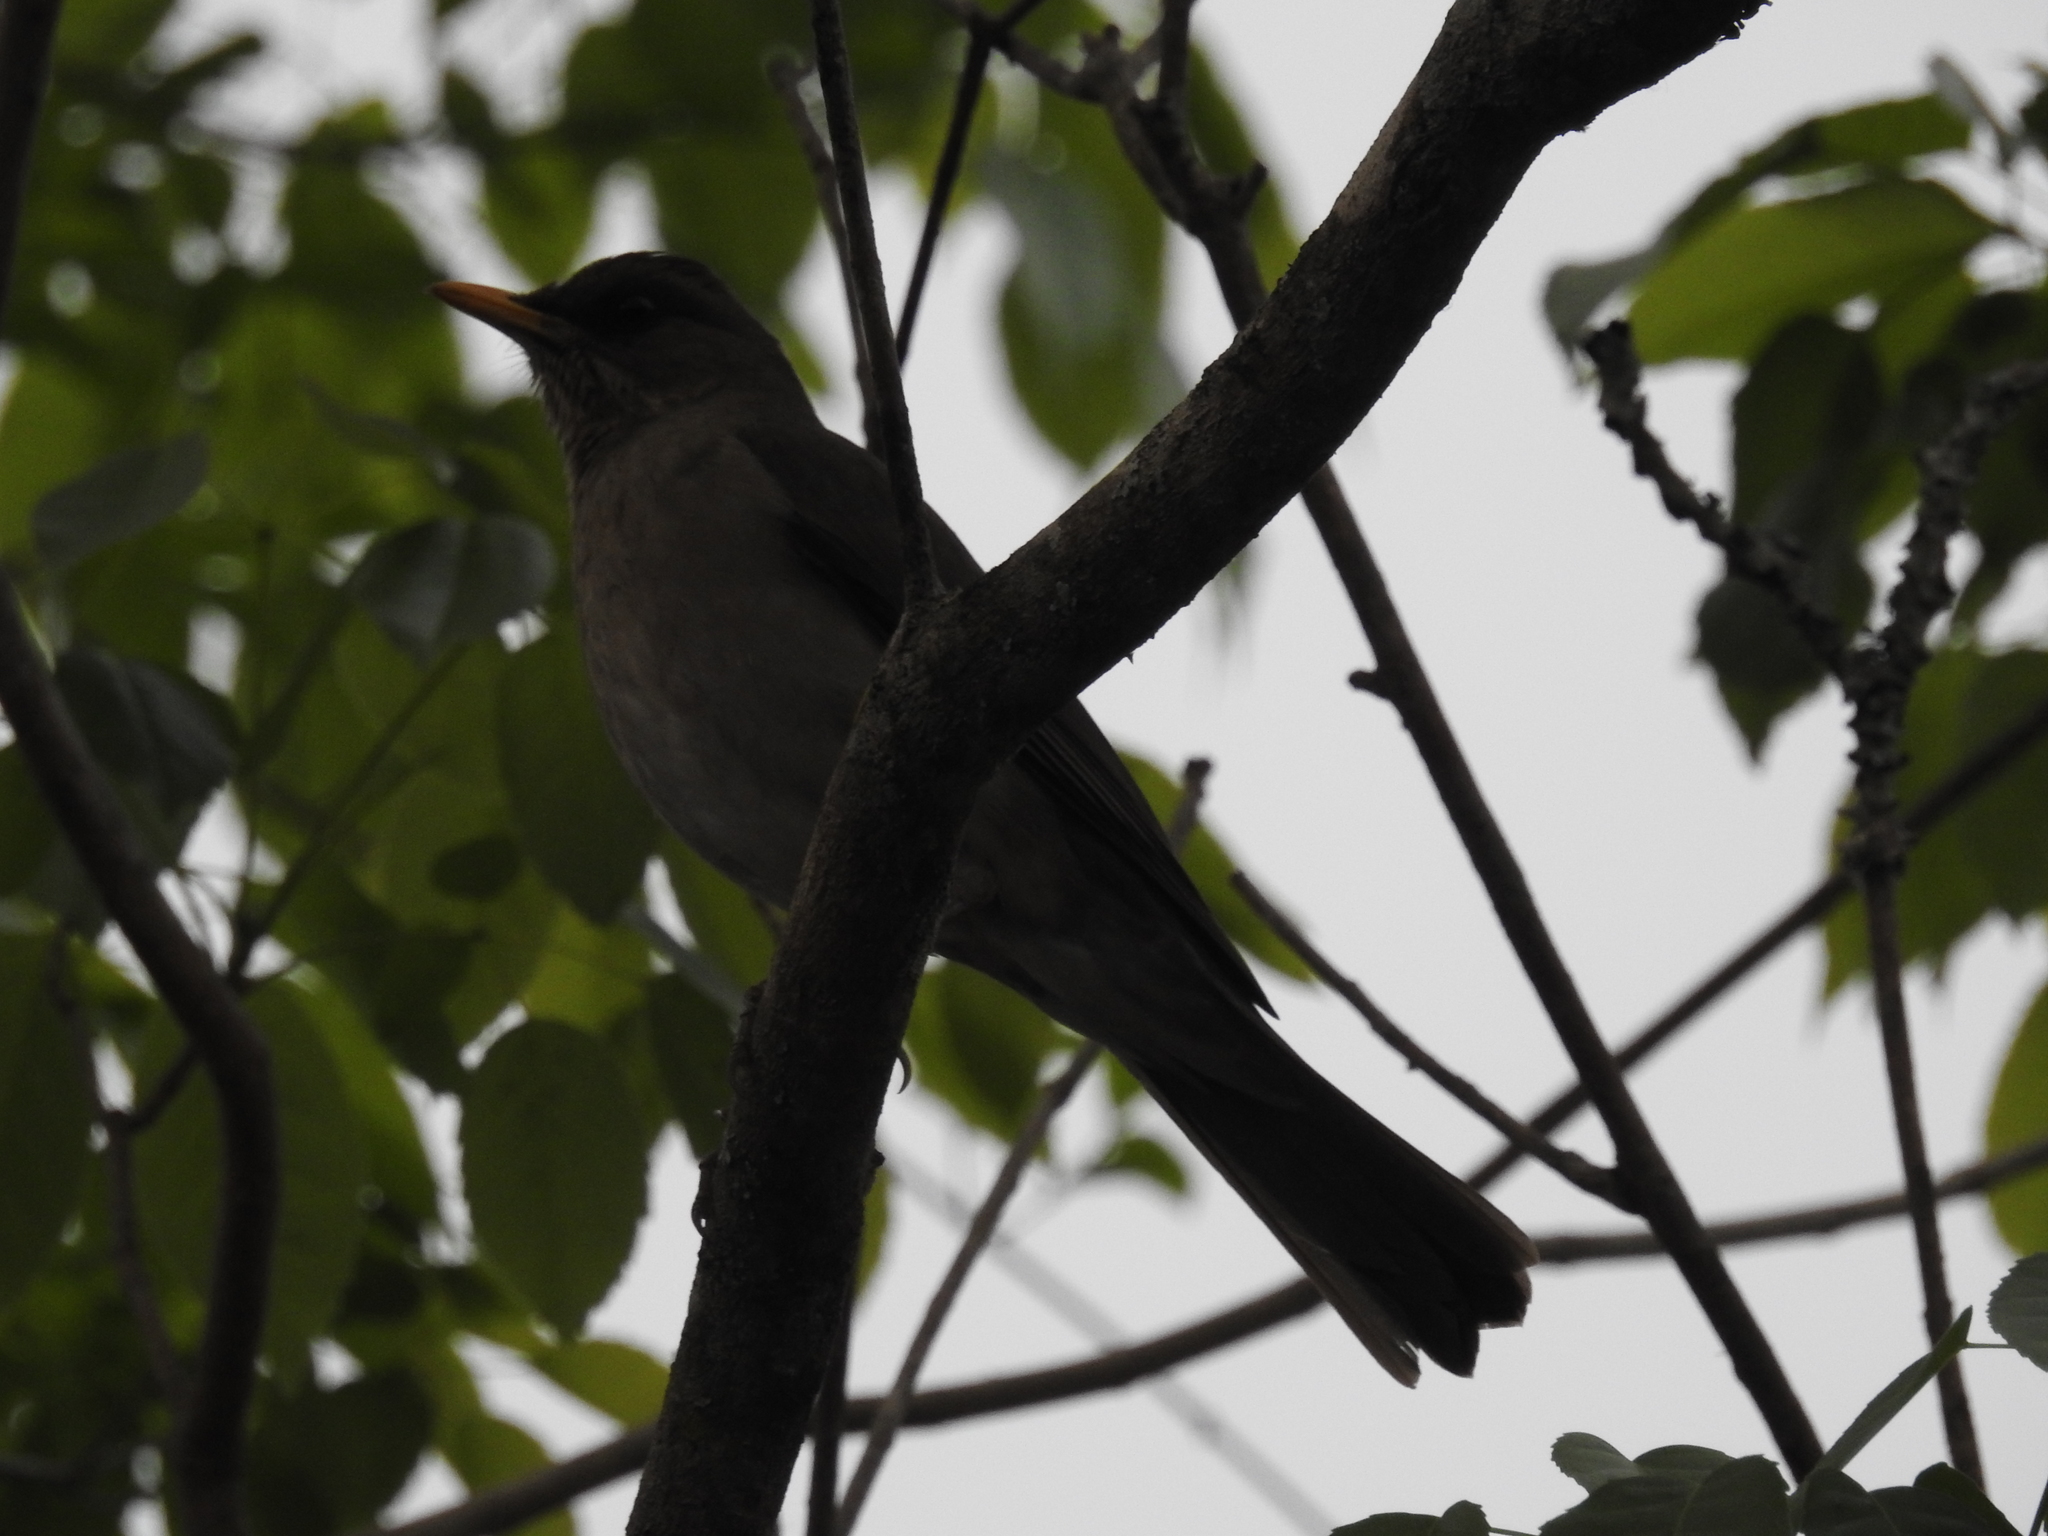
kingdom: Animalia
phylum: Chordata
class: Aves
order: Passeriformes
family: Turdidae
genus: Turdus
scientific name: Turdus amaurochalinus
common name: Creamy-bellied thrush
